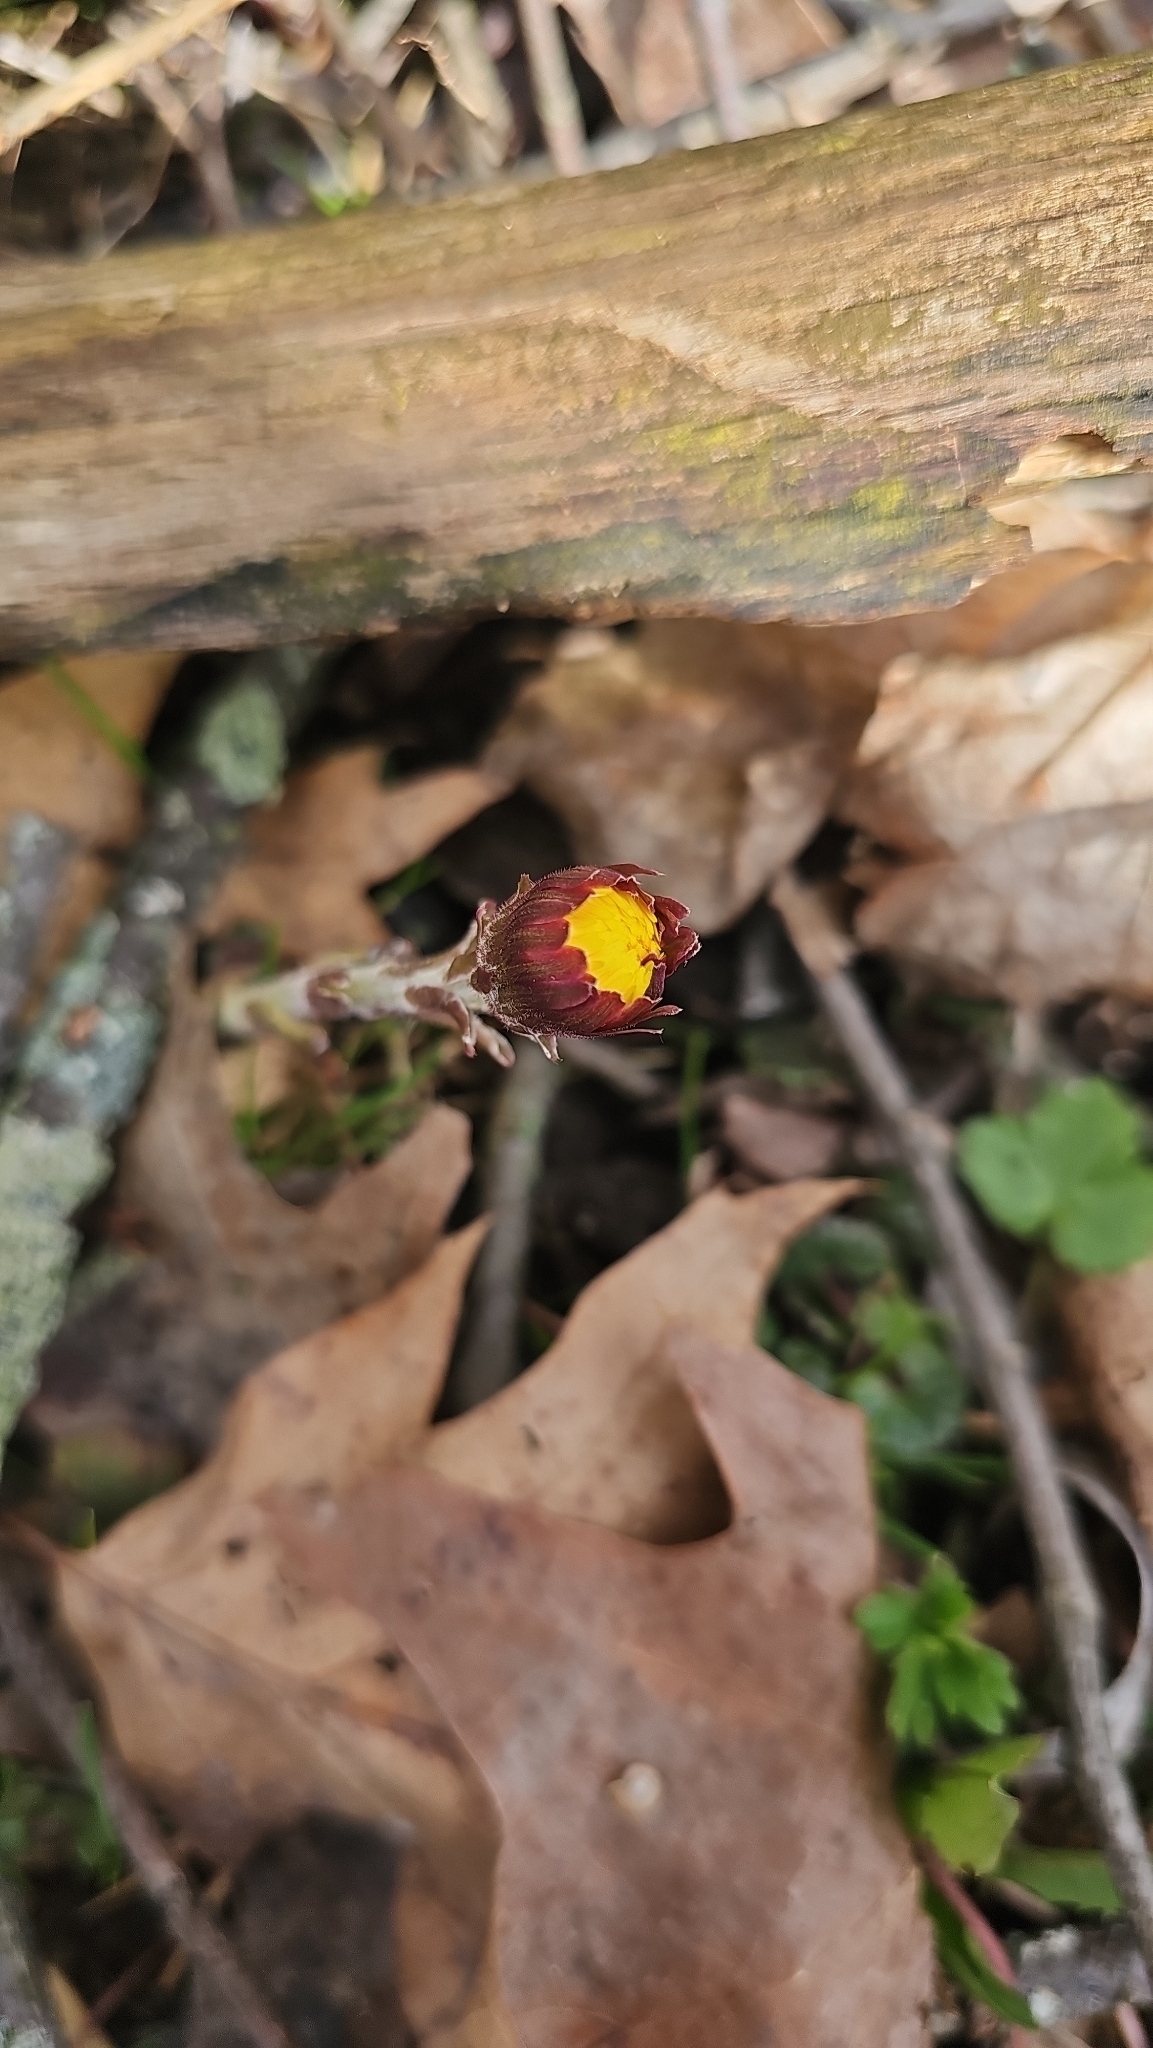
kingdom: Plantae
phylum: Tracheophyta
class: Magnoliopsida
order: Asterales
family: Asteraceae
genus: Tussilago
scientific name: Tussilago farfara
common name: Coltsfoot
